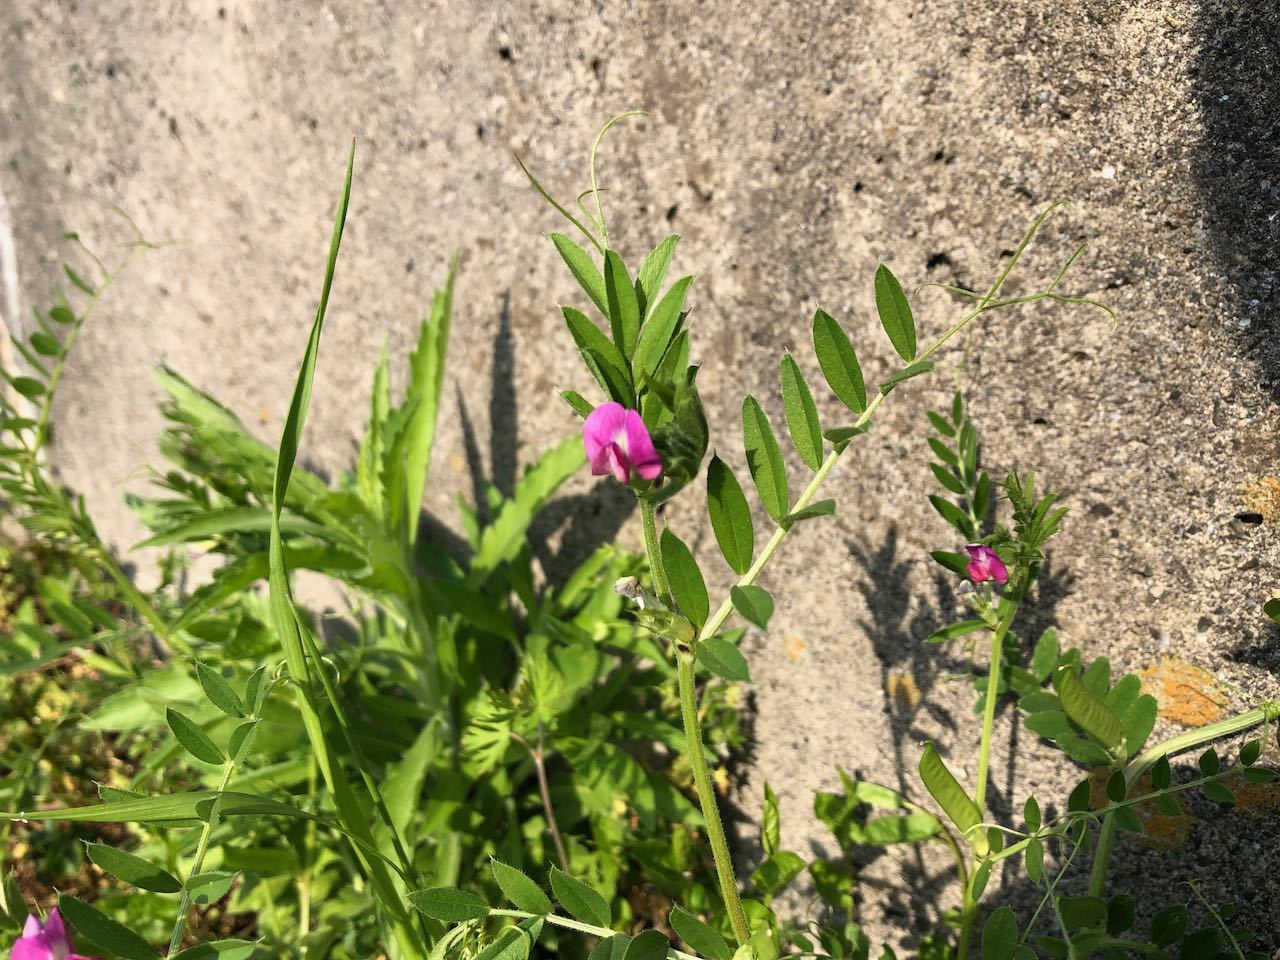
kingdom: Plantae
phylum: Tracheophyta
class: Magnoliopsida
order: Fabales
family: Fabaceae
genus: Vicia
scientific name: Vicia sativa
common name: Garden vetch
